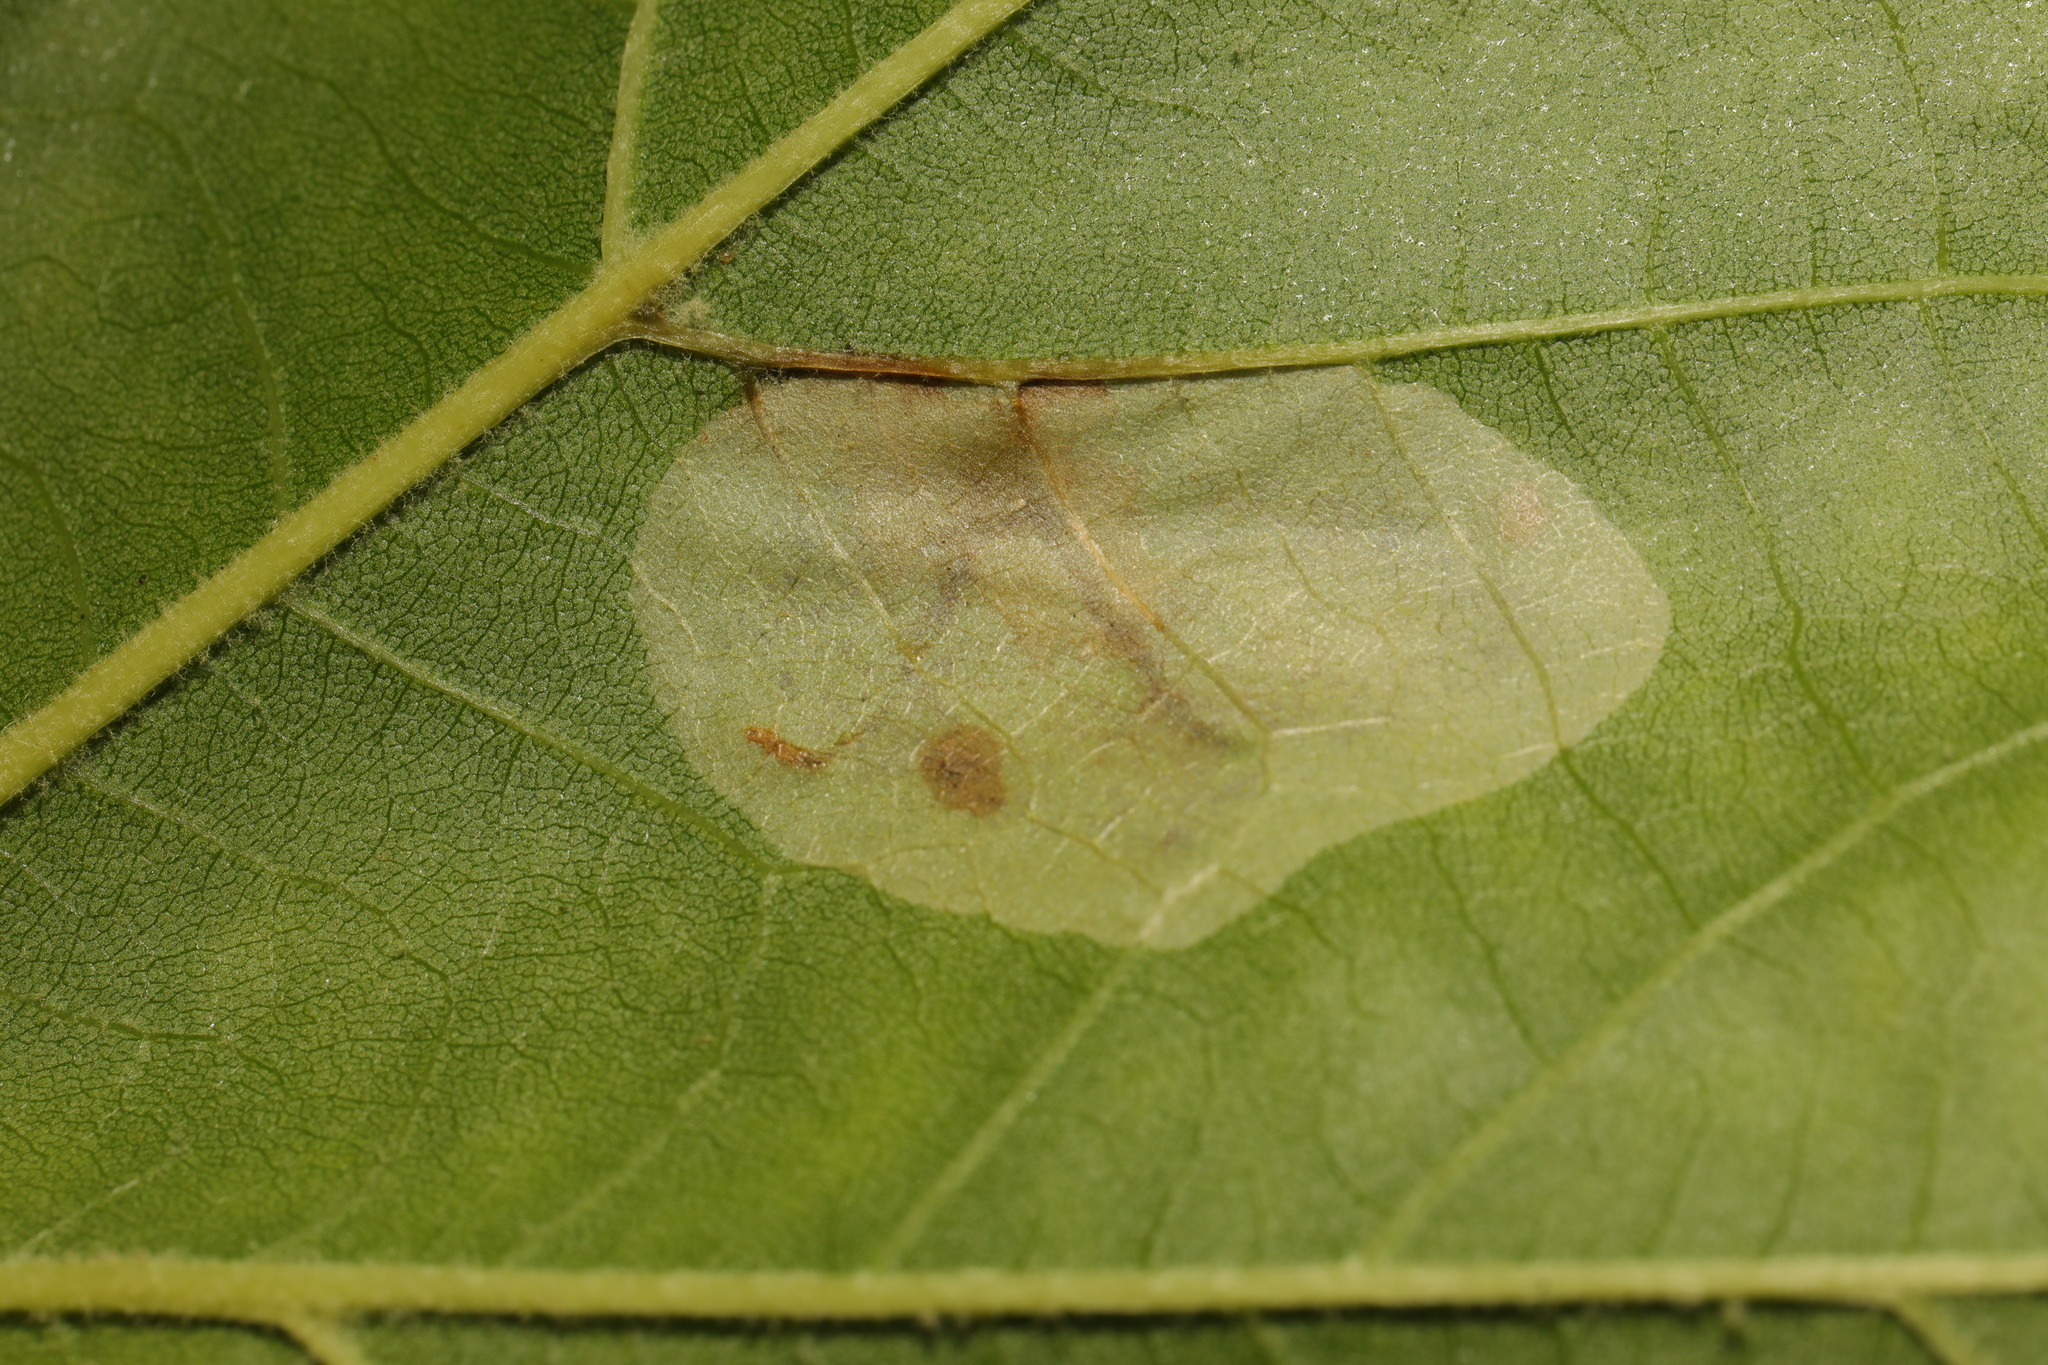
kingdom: Animalia
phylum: Arthropoda
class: Insecta
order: Lepidoptera
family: Gracillariidae
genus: Phyllonorycter
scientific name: Phyllonorycter platani
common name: London midget
